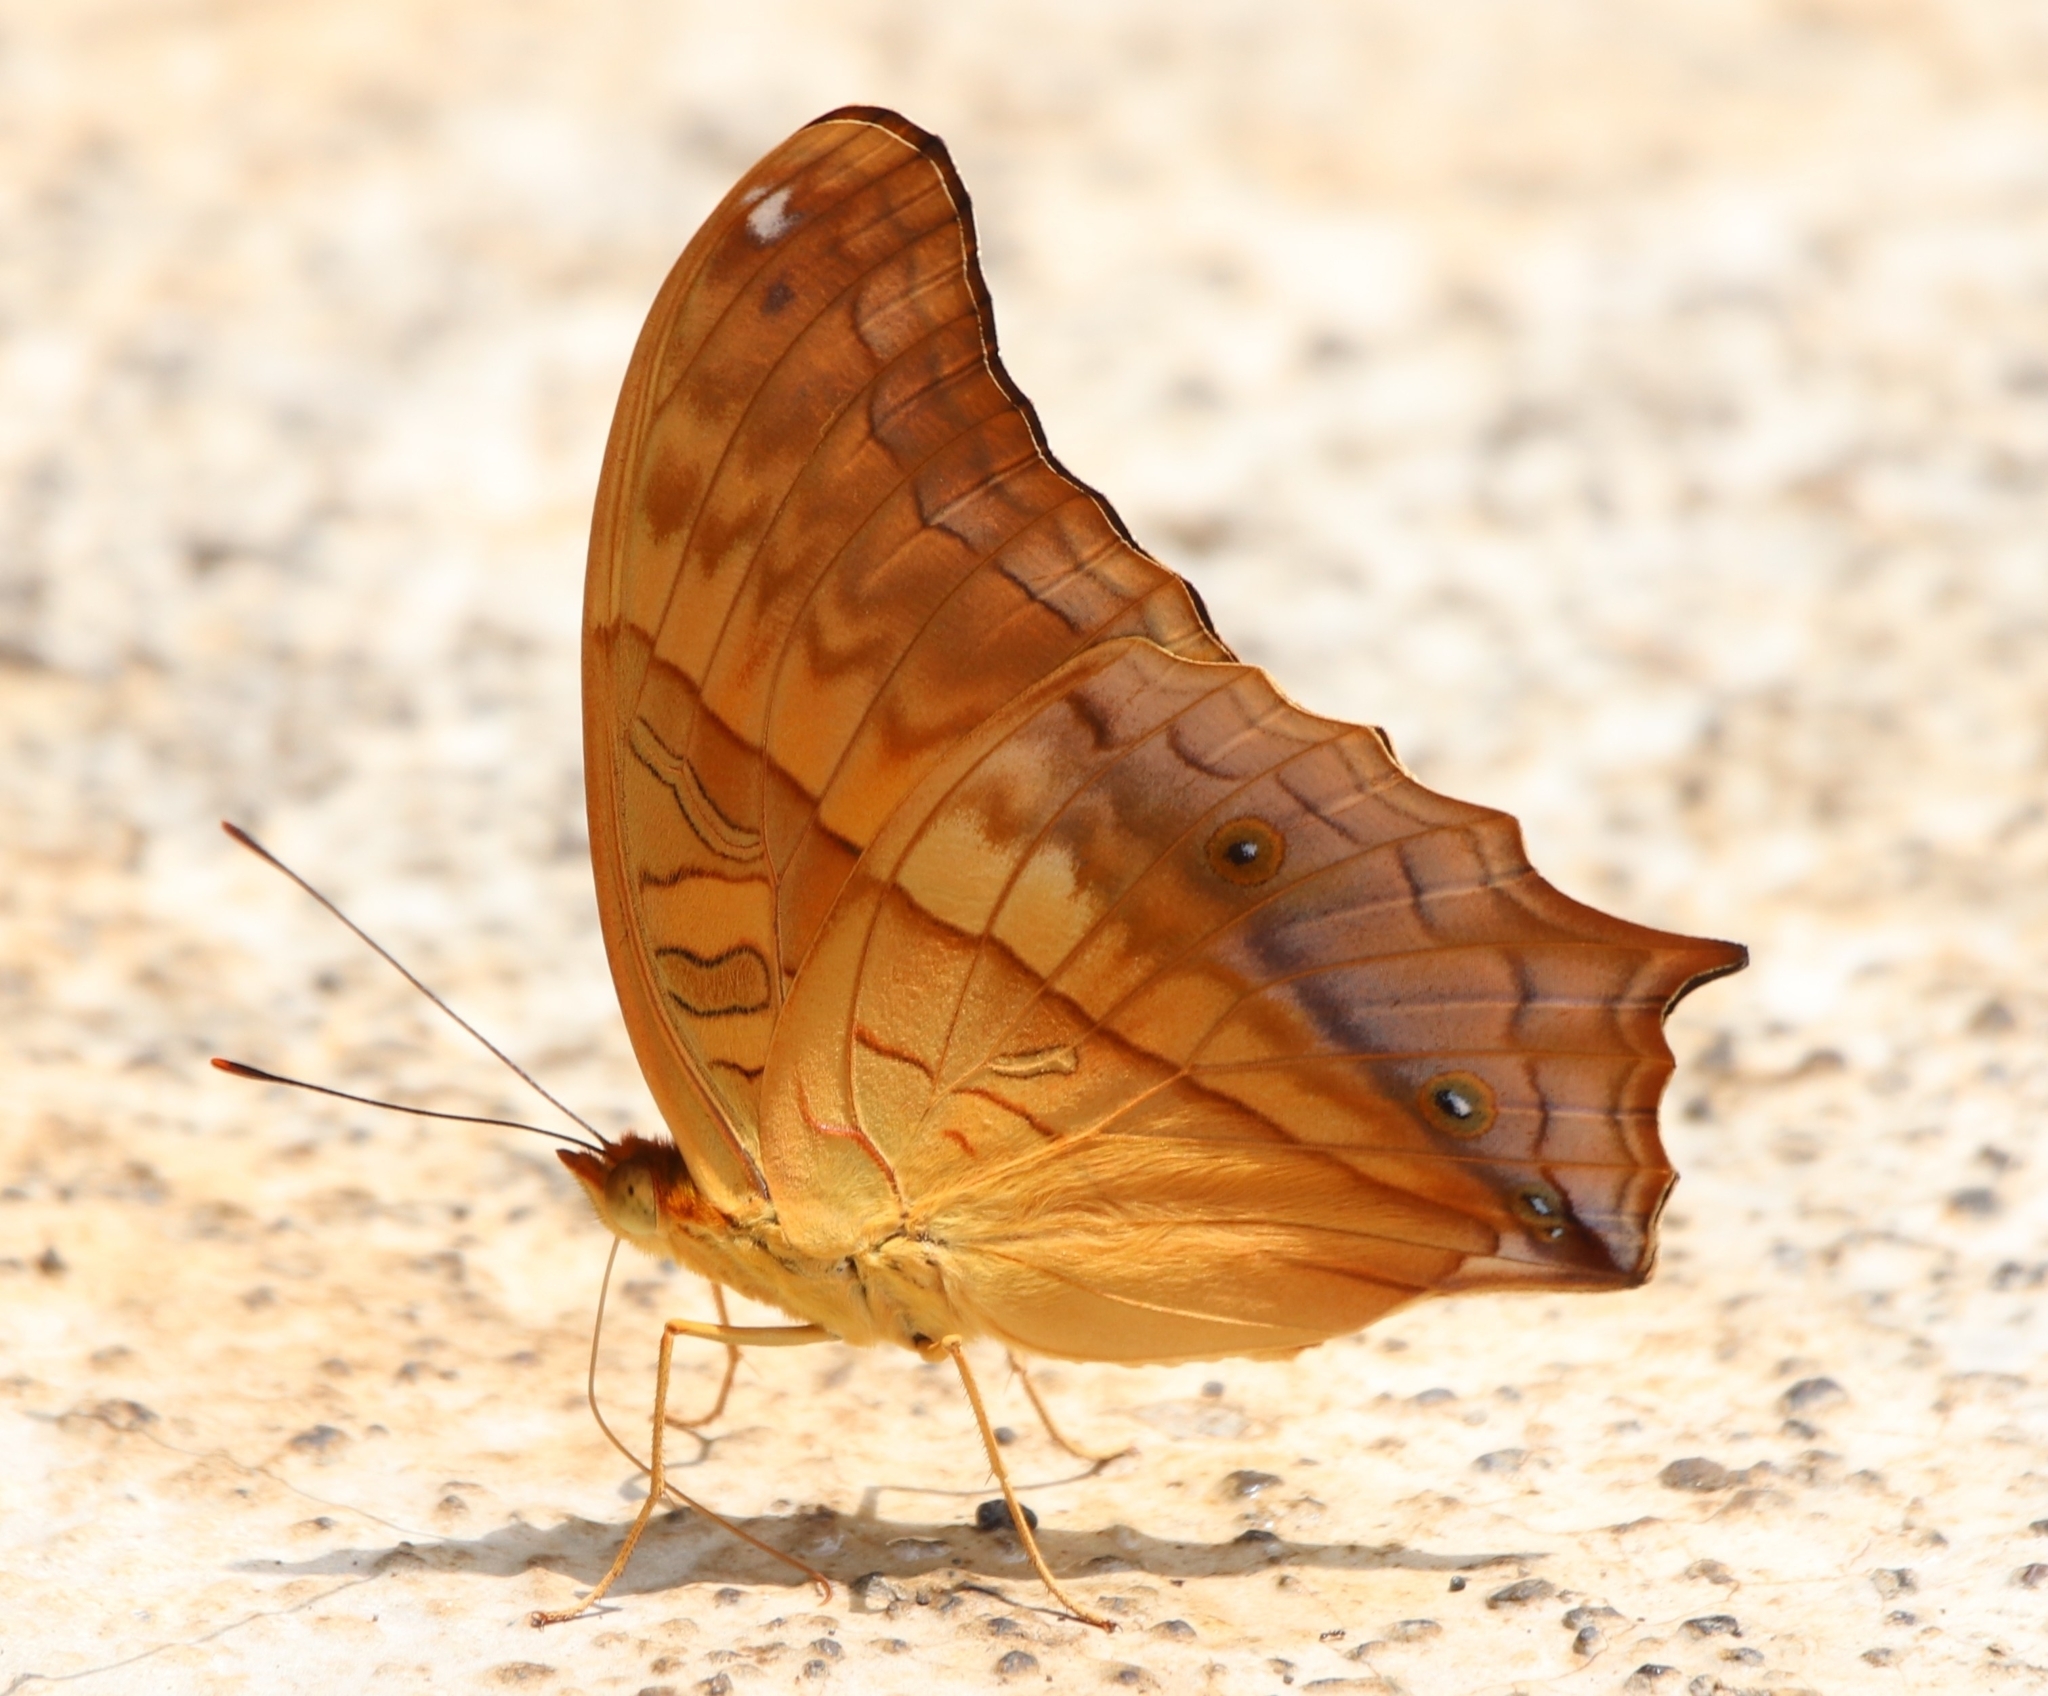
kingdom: Animalia
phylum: Arthropoda
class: Insecta
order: Lepidoptera
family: Nymphalidae
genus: Vindula
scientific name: Vindula deione
